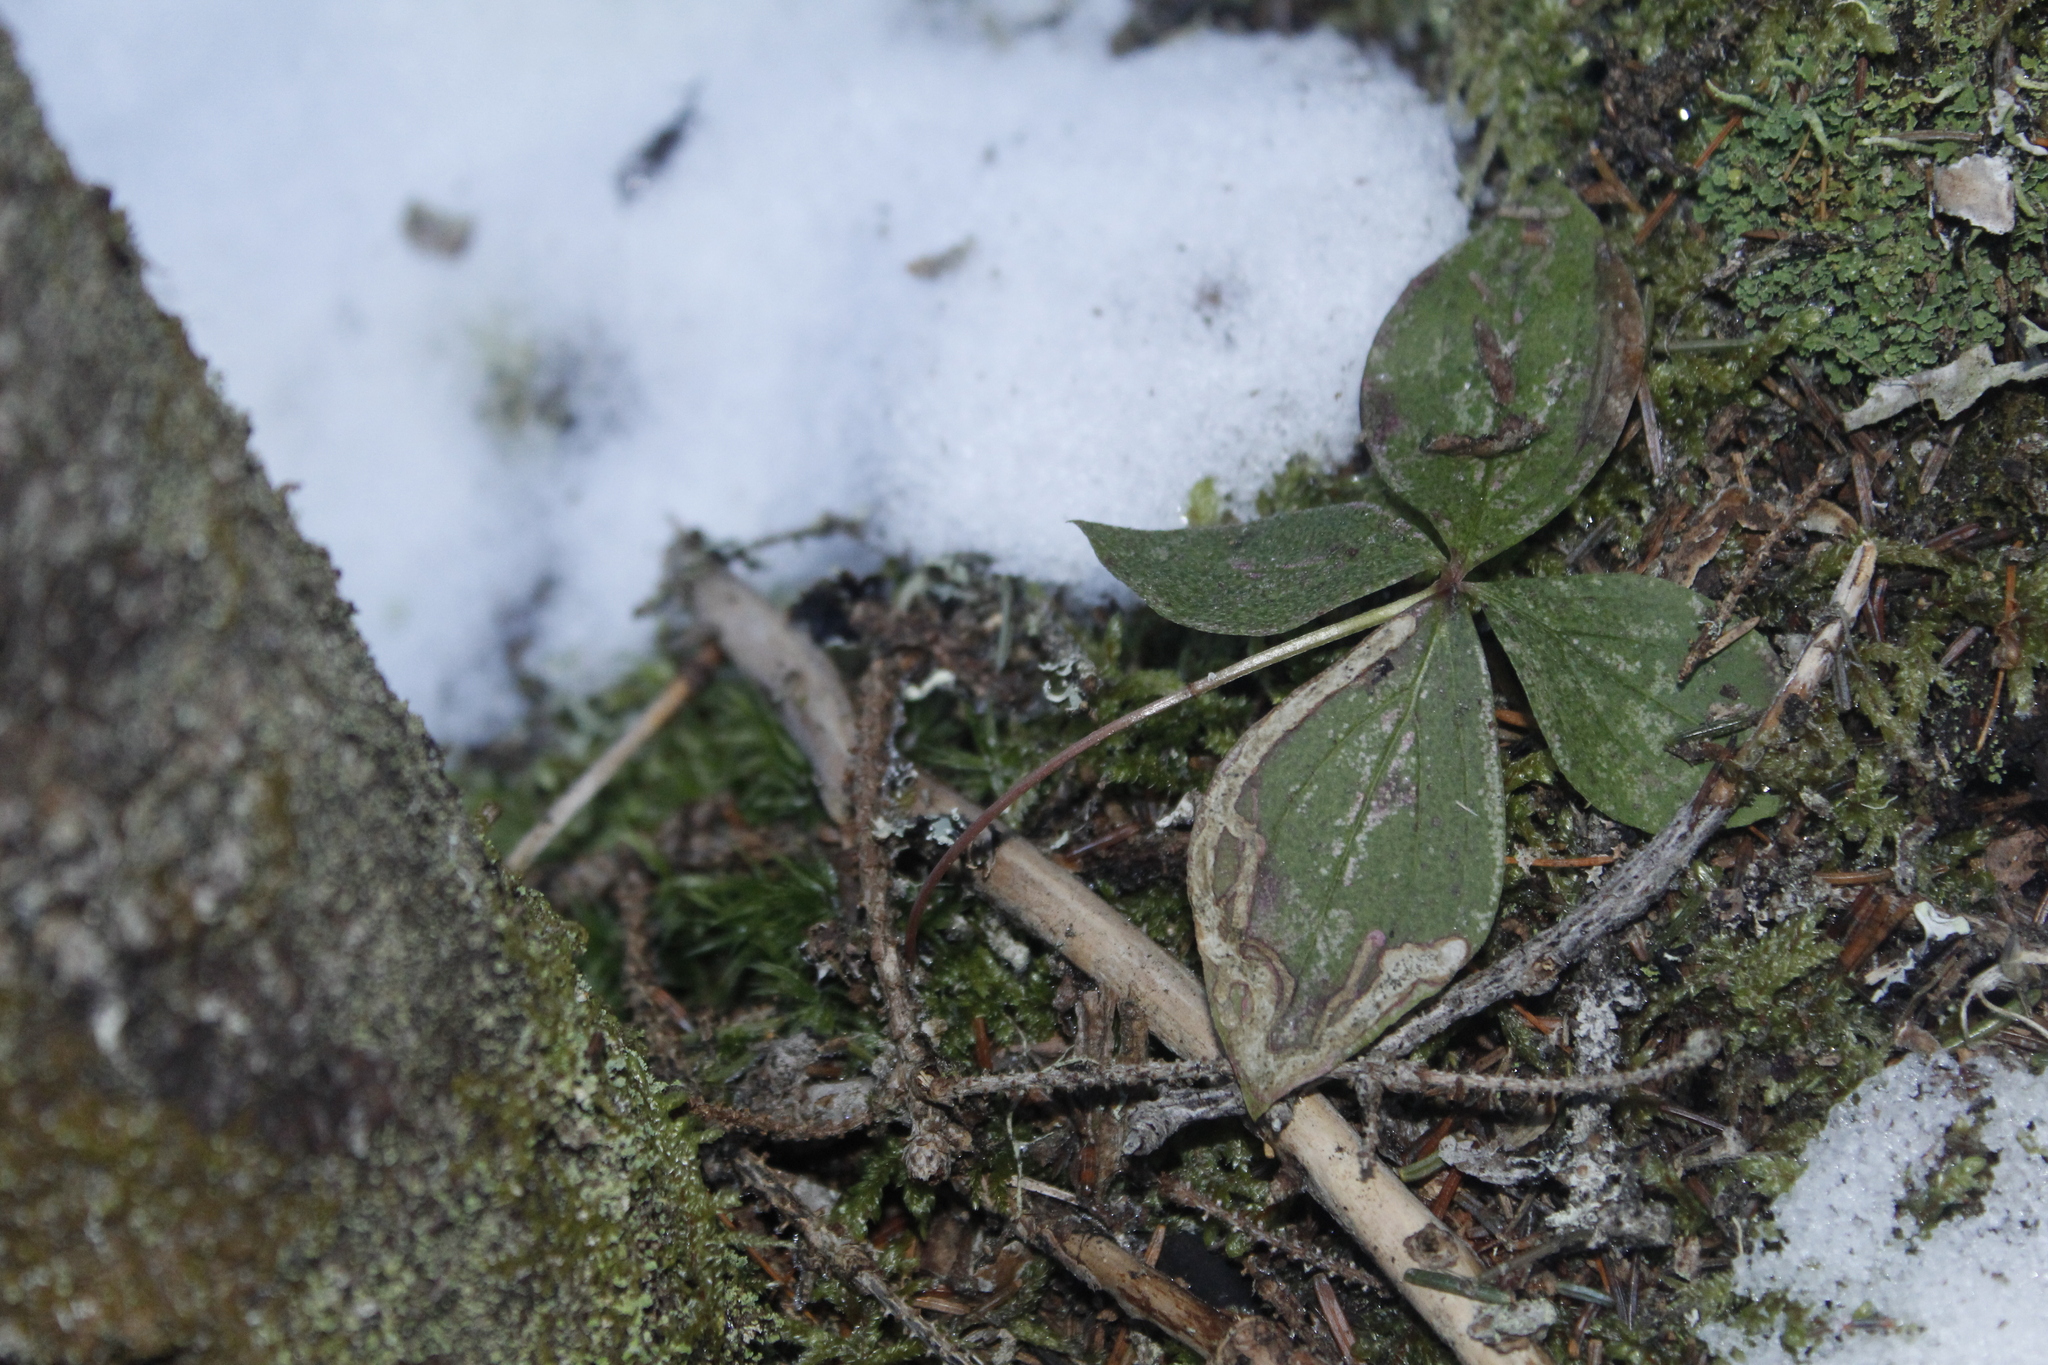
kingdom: Animalia
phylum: Arthropoda
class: Insecta
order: Diptera
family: Agromyzidae
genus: Phytomyza
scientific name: Phytomyza agromyzina
